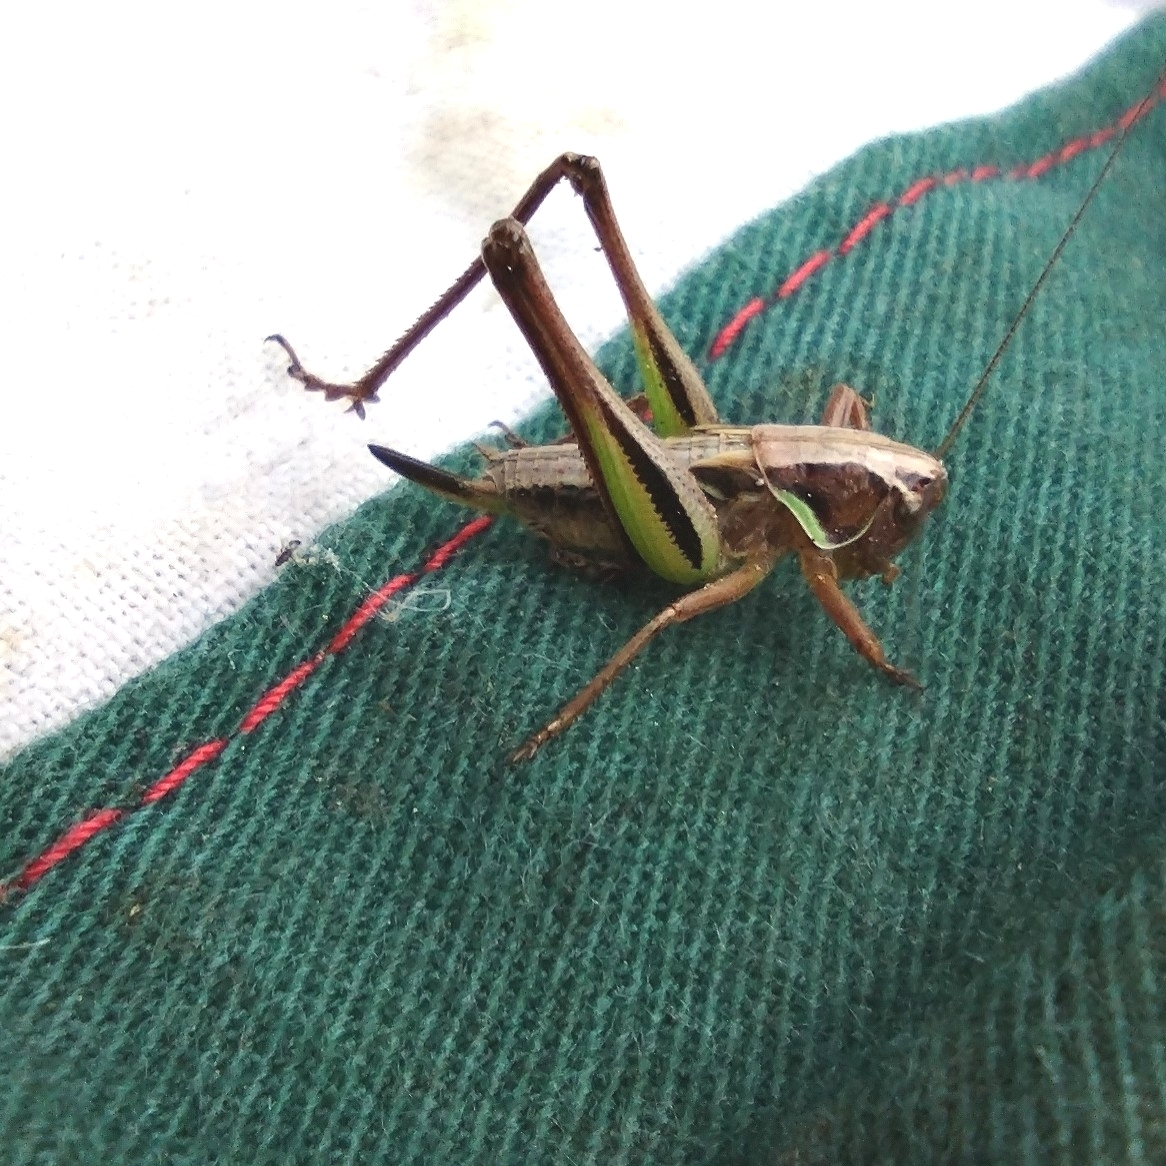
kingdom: Animalia
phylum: Arthropoda
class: Insecta
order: Orthoptera
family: Tettigoniidae
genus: Metrioptera
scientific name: Metrioptera brachyptera
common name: Bog bush-cricket
